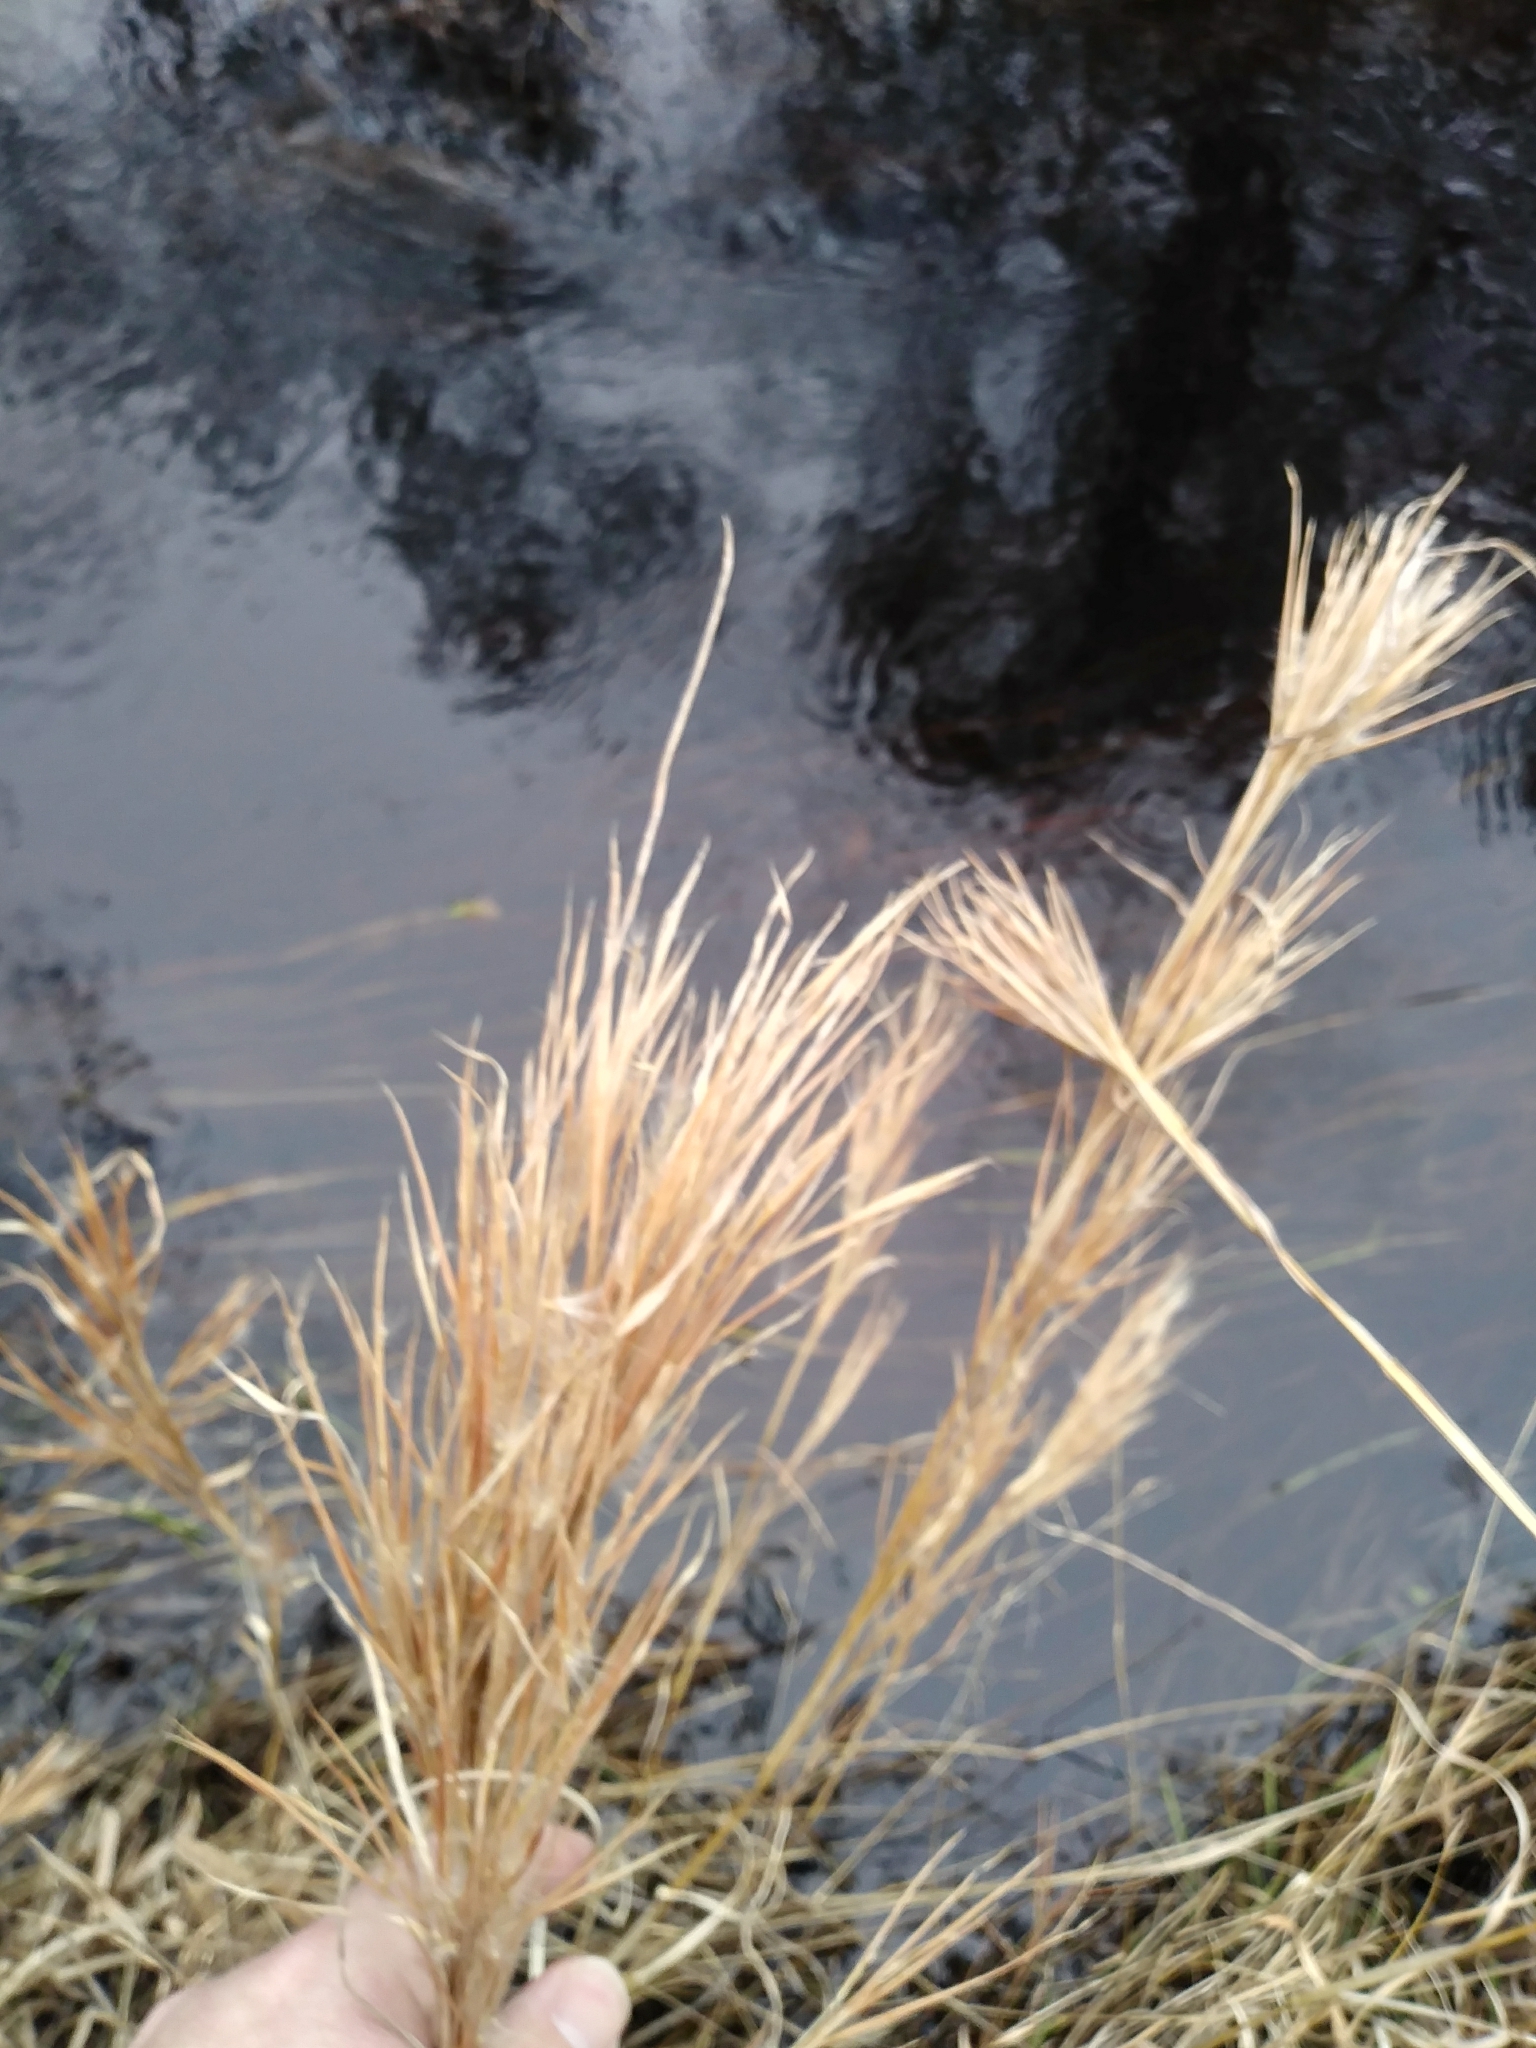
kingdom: Plantae
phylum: Tracheophyta
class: Liliopsida
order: Poales
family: Poaceae
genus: Andropogon
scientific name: Andropogon glomeratus
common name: Bushy beard grass
